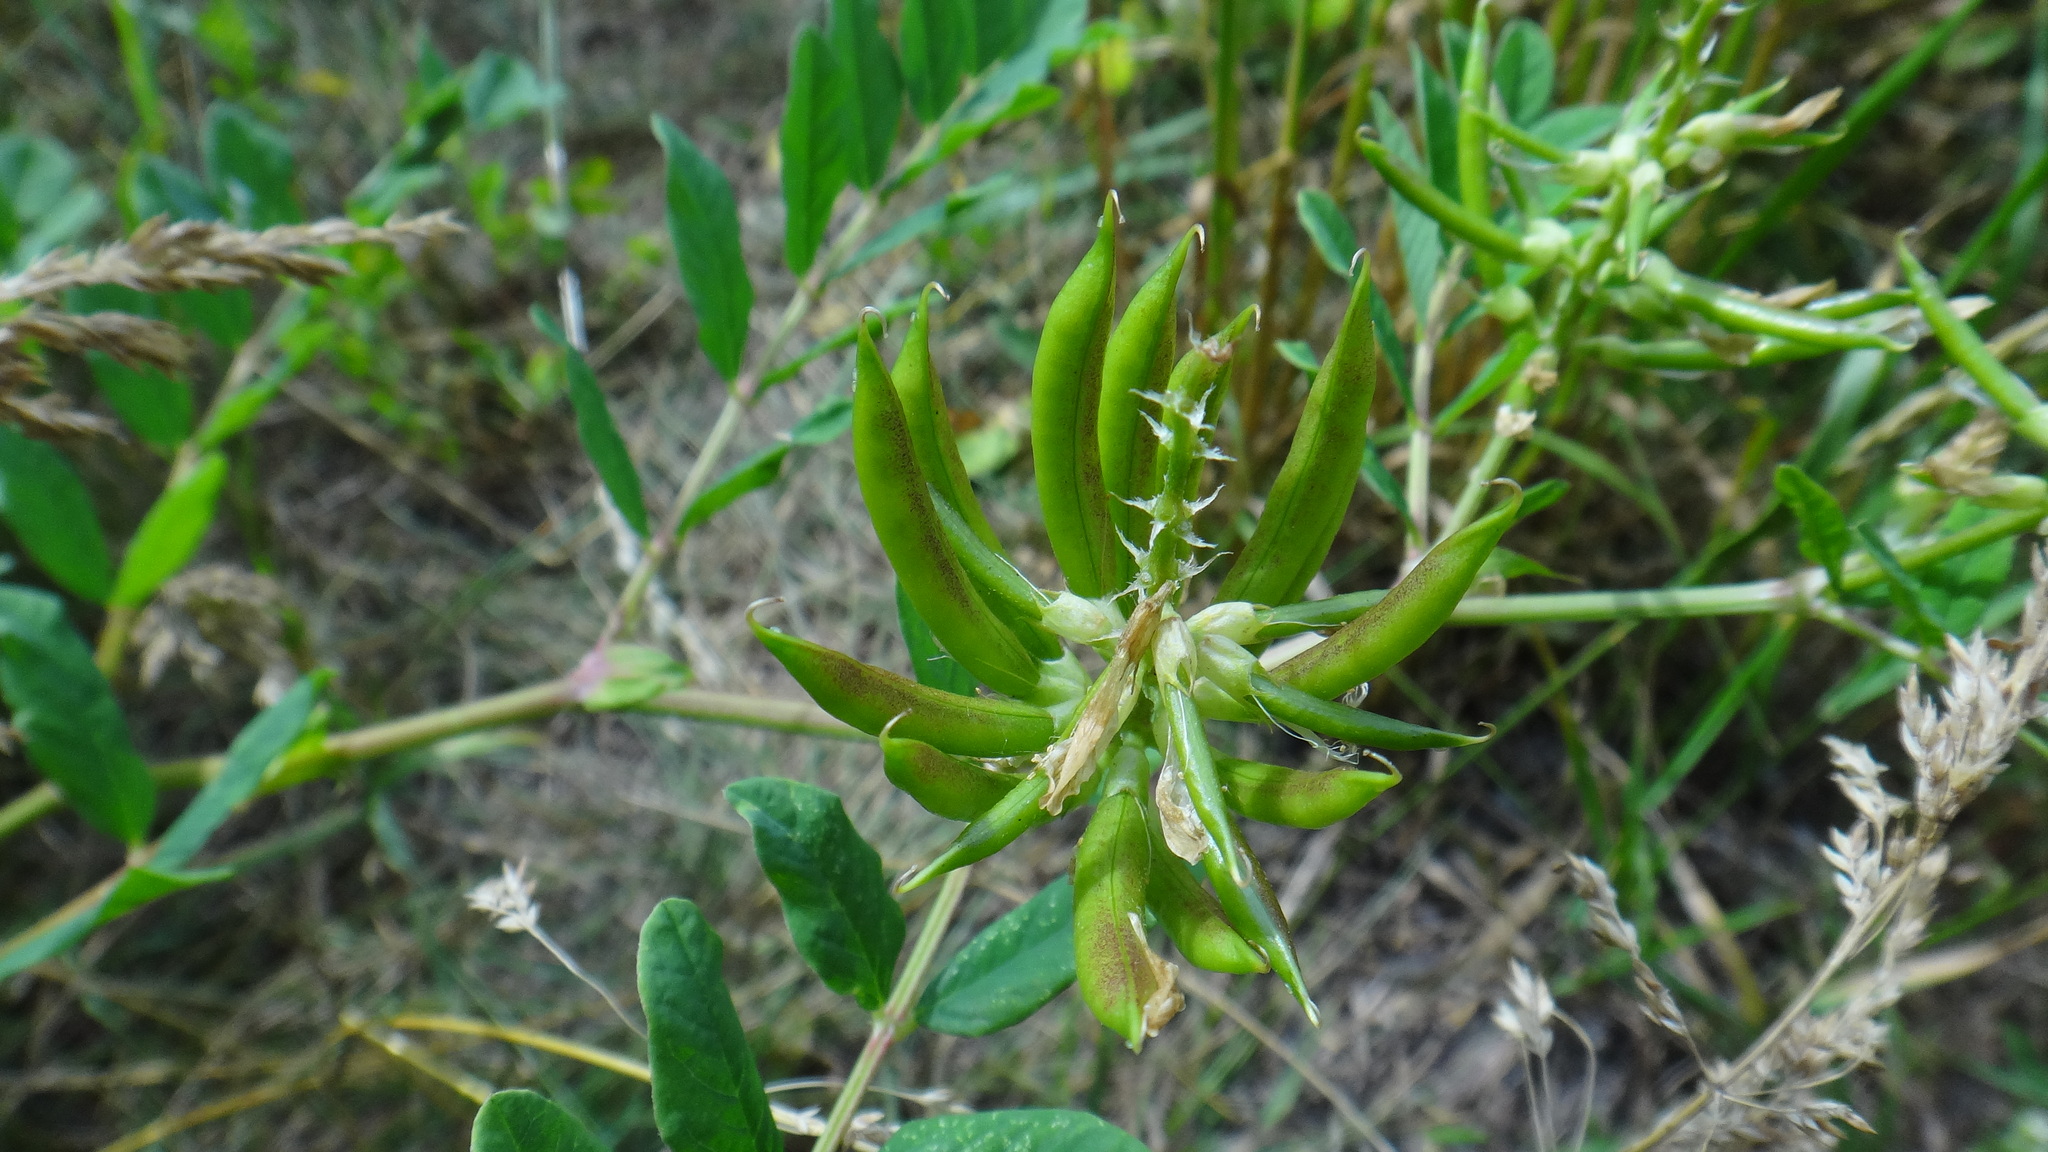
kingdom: Plantae
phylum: Tracheophyta
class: Magnoliopsida
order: Fabales
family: Fabaceae
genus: Astragalus
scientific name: Astragalus glycyphyllos
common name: Wild liquorice
